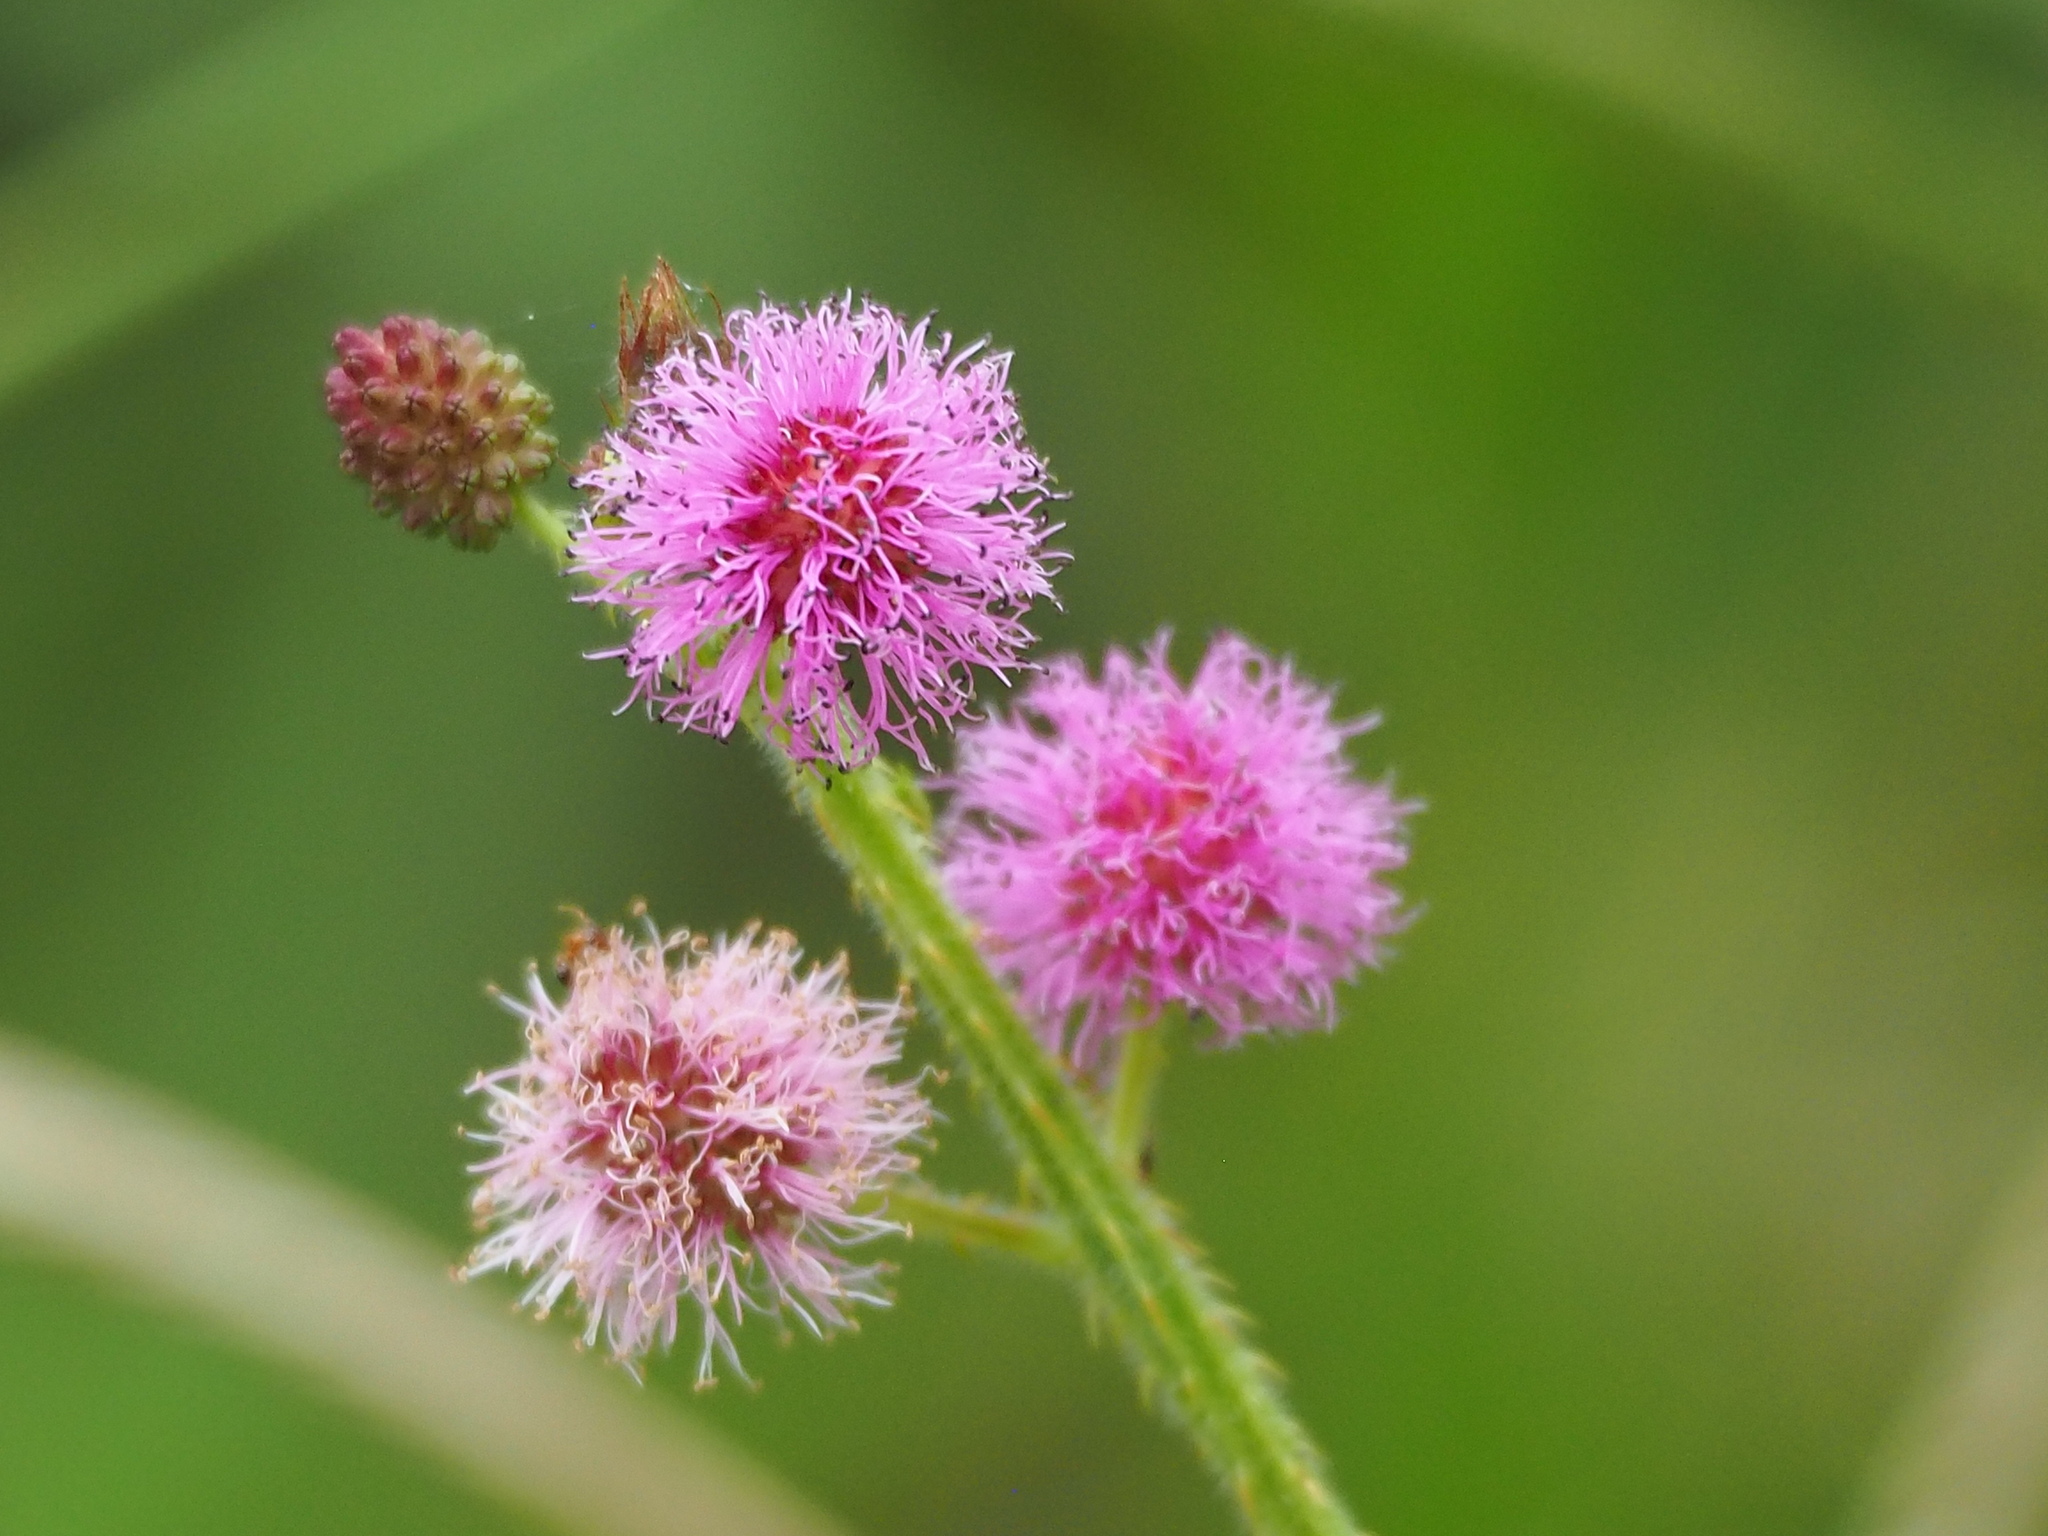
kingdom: Plantae
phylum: Tracheophyta
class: Magnoliopsida
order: Fabales
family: Fabaceae
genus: Mimosa
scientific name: Mimosa diplotricha
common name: Giant sensitive-plant
